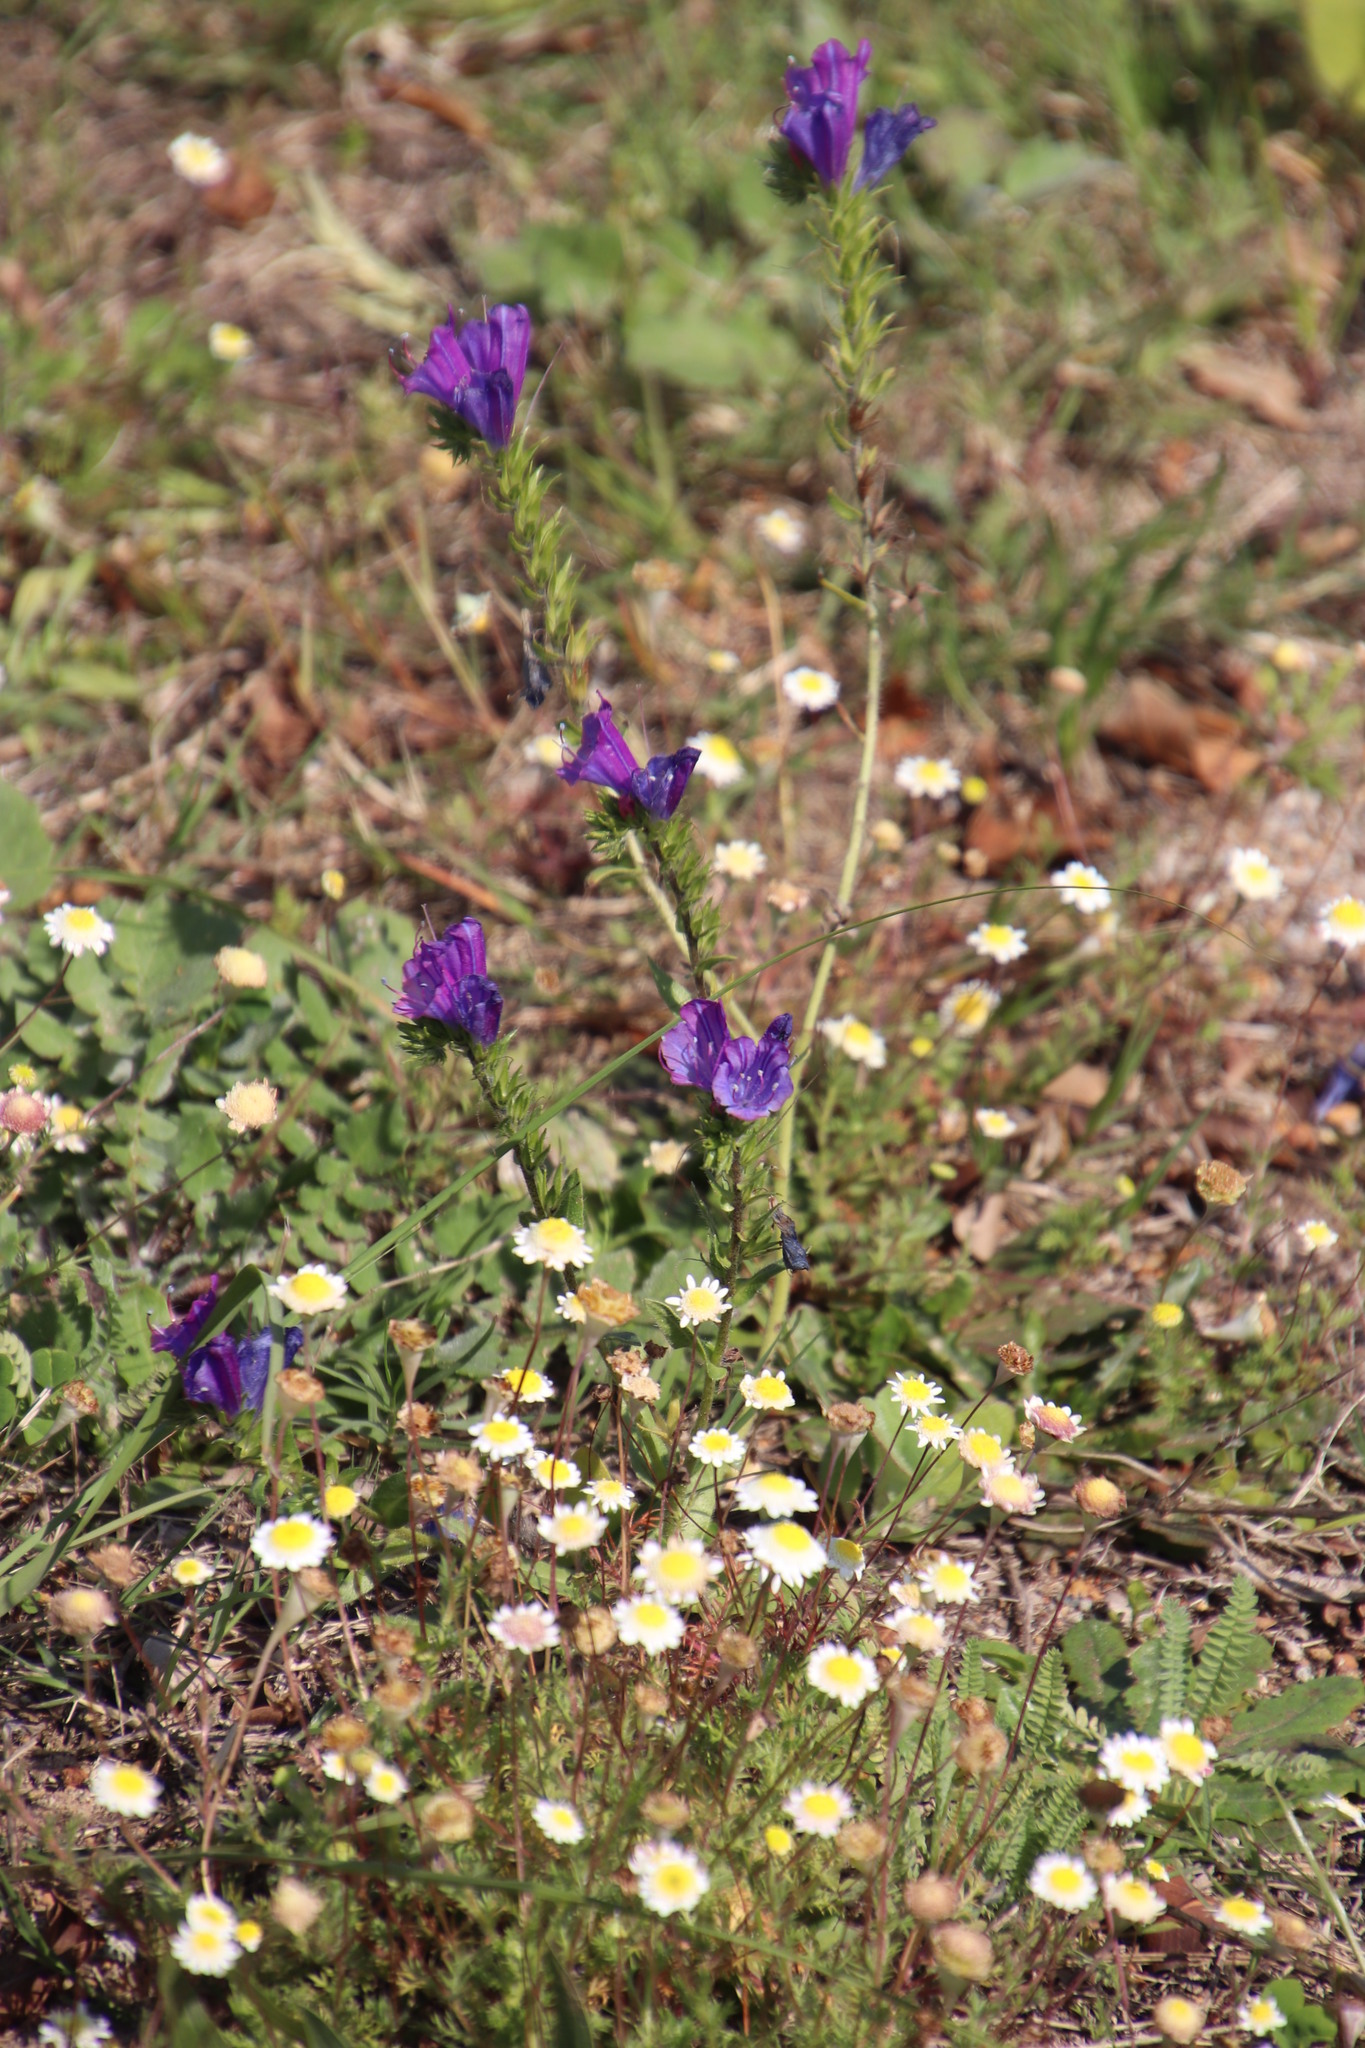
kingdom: Plantae
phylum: Tracheophyta
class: Magnoliopsida
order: Boraginales
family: Boraginaceae
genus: Echium
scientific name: Echium plantagineum
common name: Purple viper's-bugloss
